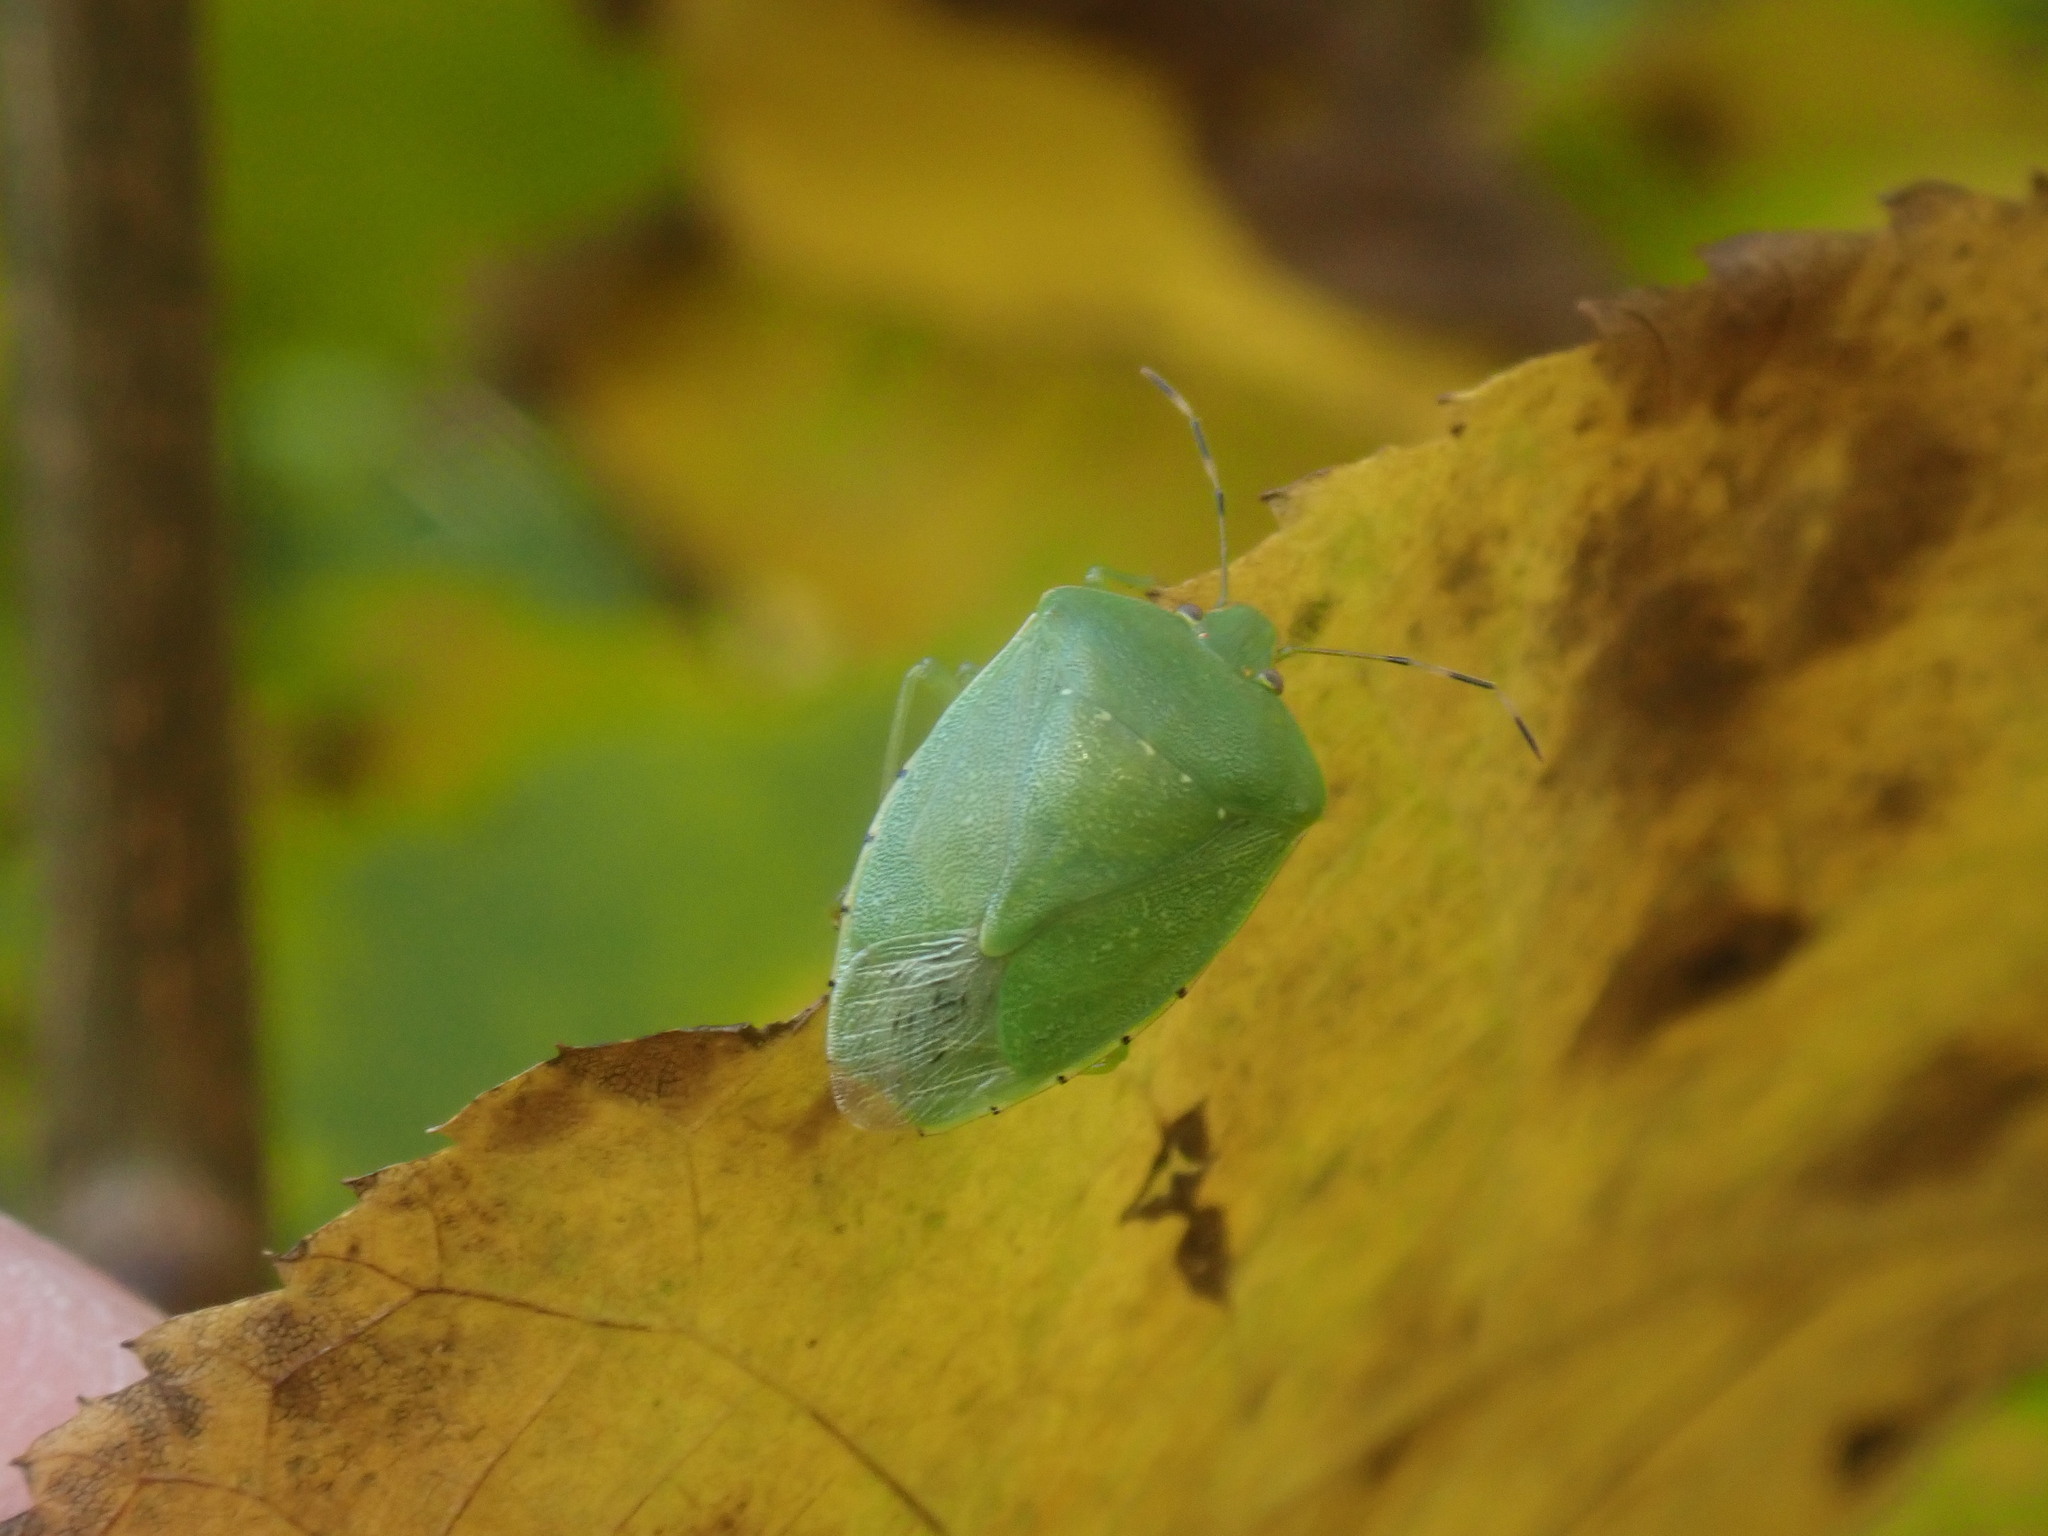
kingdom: Animalia
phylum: Arthropoda
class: Insecta
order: Hemiptera
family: Pentatomidae
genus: Chinavia
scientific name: Chinavia hilaris
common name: Green stink bug
